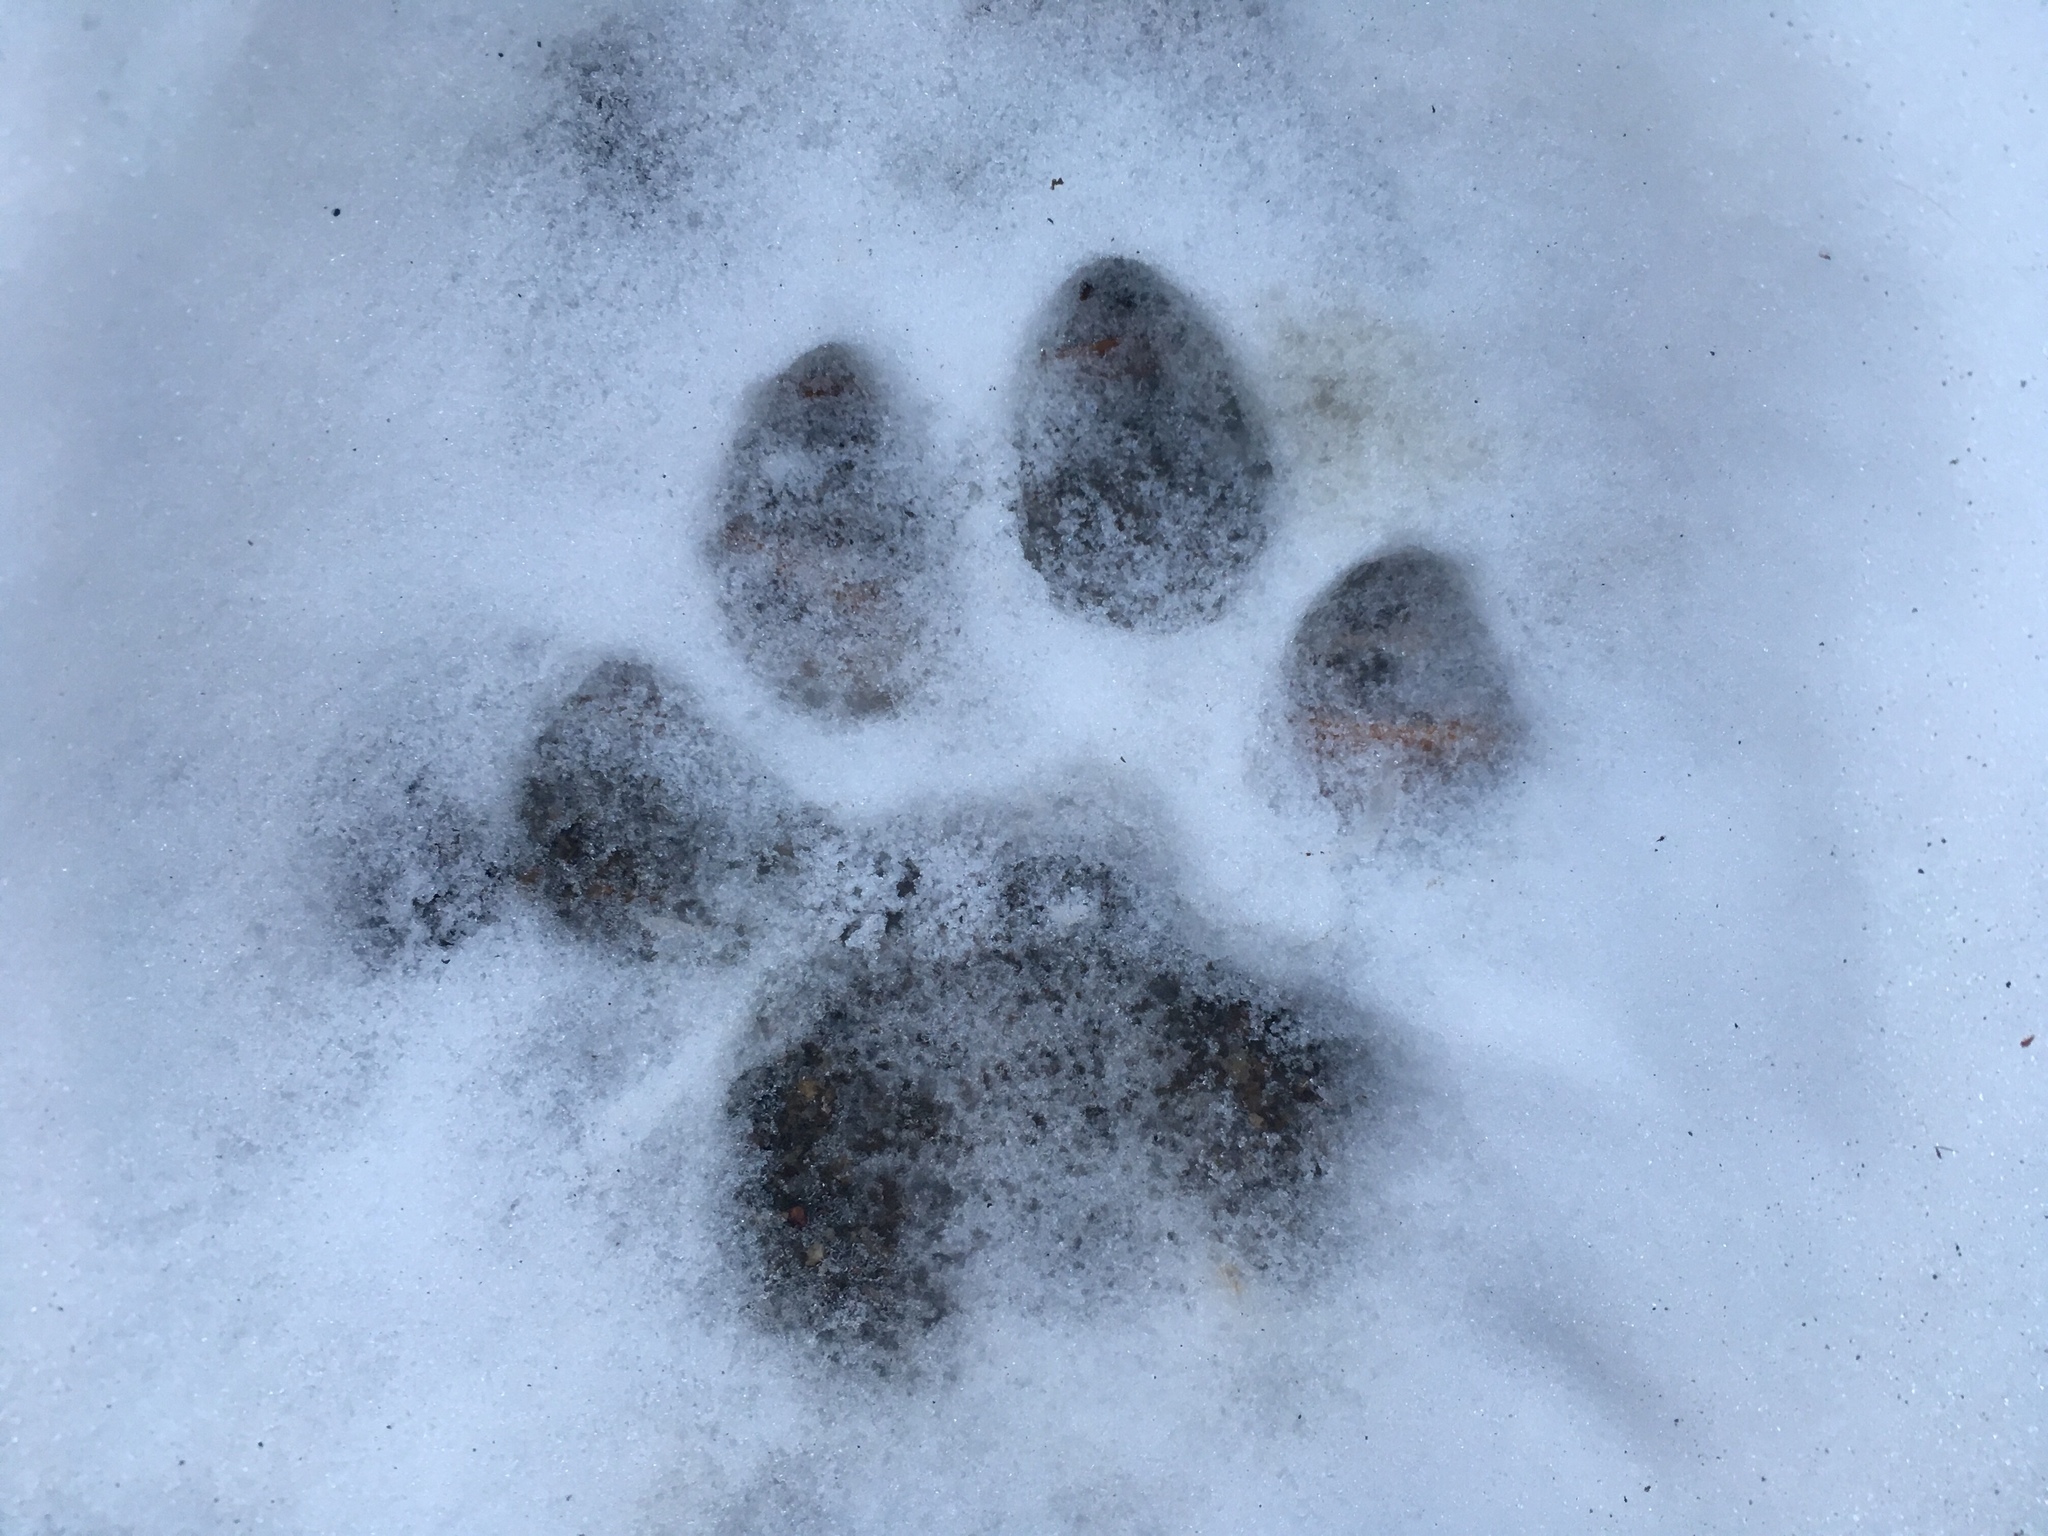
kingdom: Animalia
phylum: Chordata
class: Mammalia
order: Carnivora
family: Felidae
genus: Puma
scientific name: Puma concolor
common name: Puma
